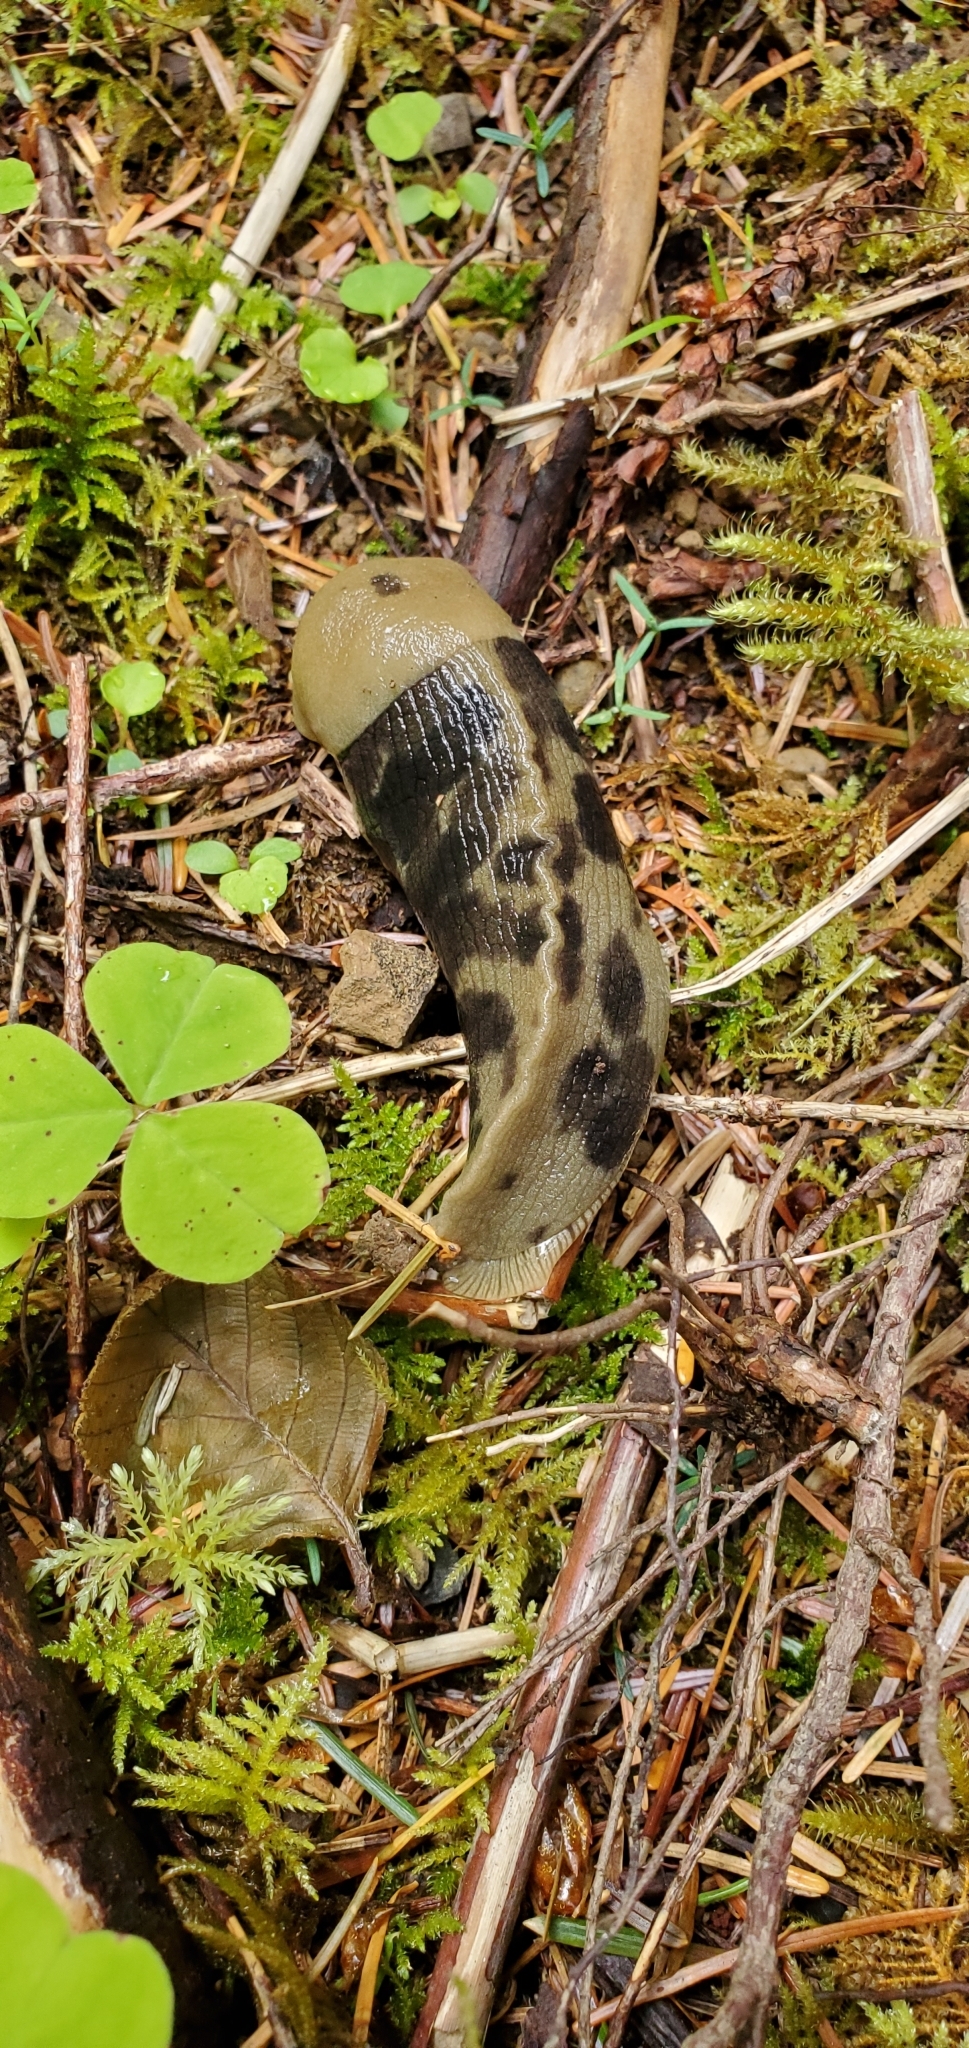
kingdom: Animalia
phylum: Mollusca
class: Gastropoda
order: Stylommatophora
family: Ariolimacidae
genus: Ariolimax
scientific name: Ariolimax columbianus
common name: Pacific banana slug
